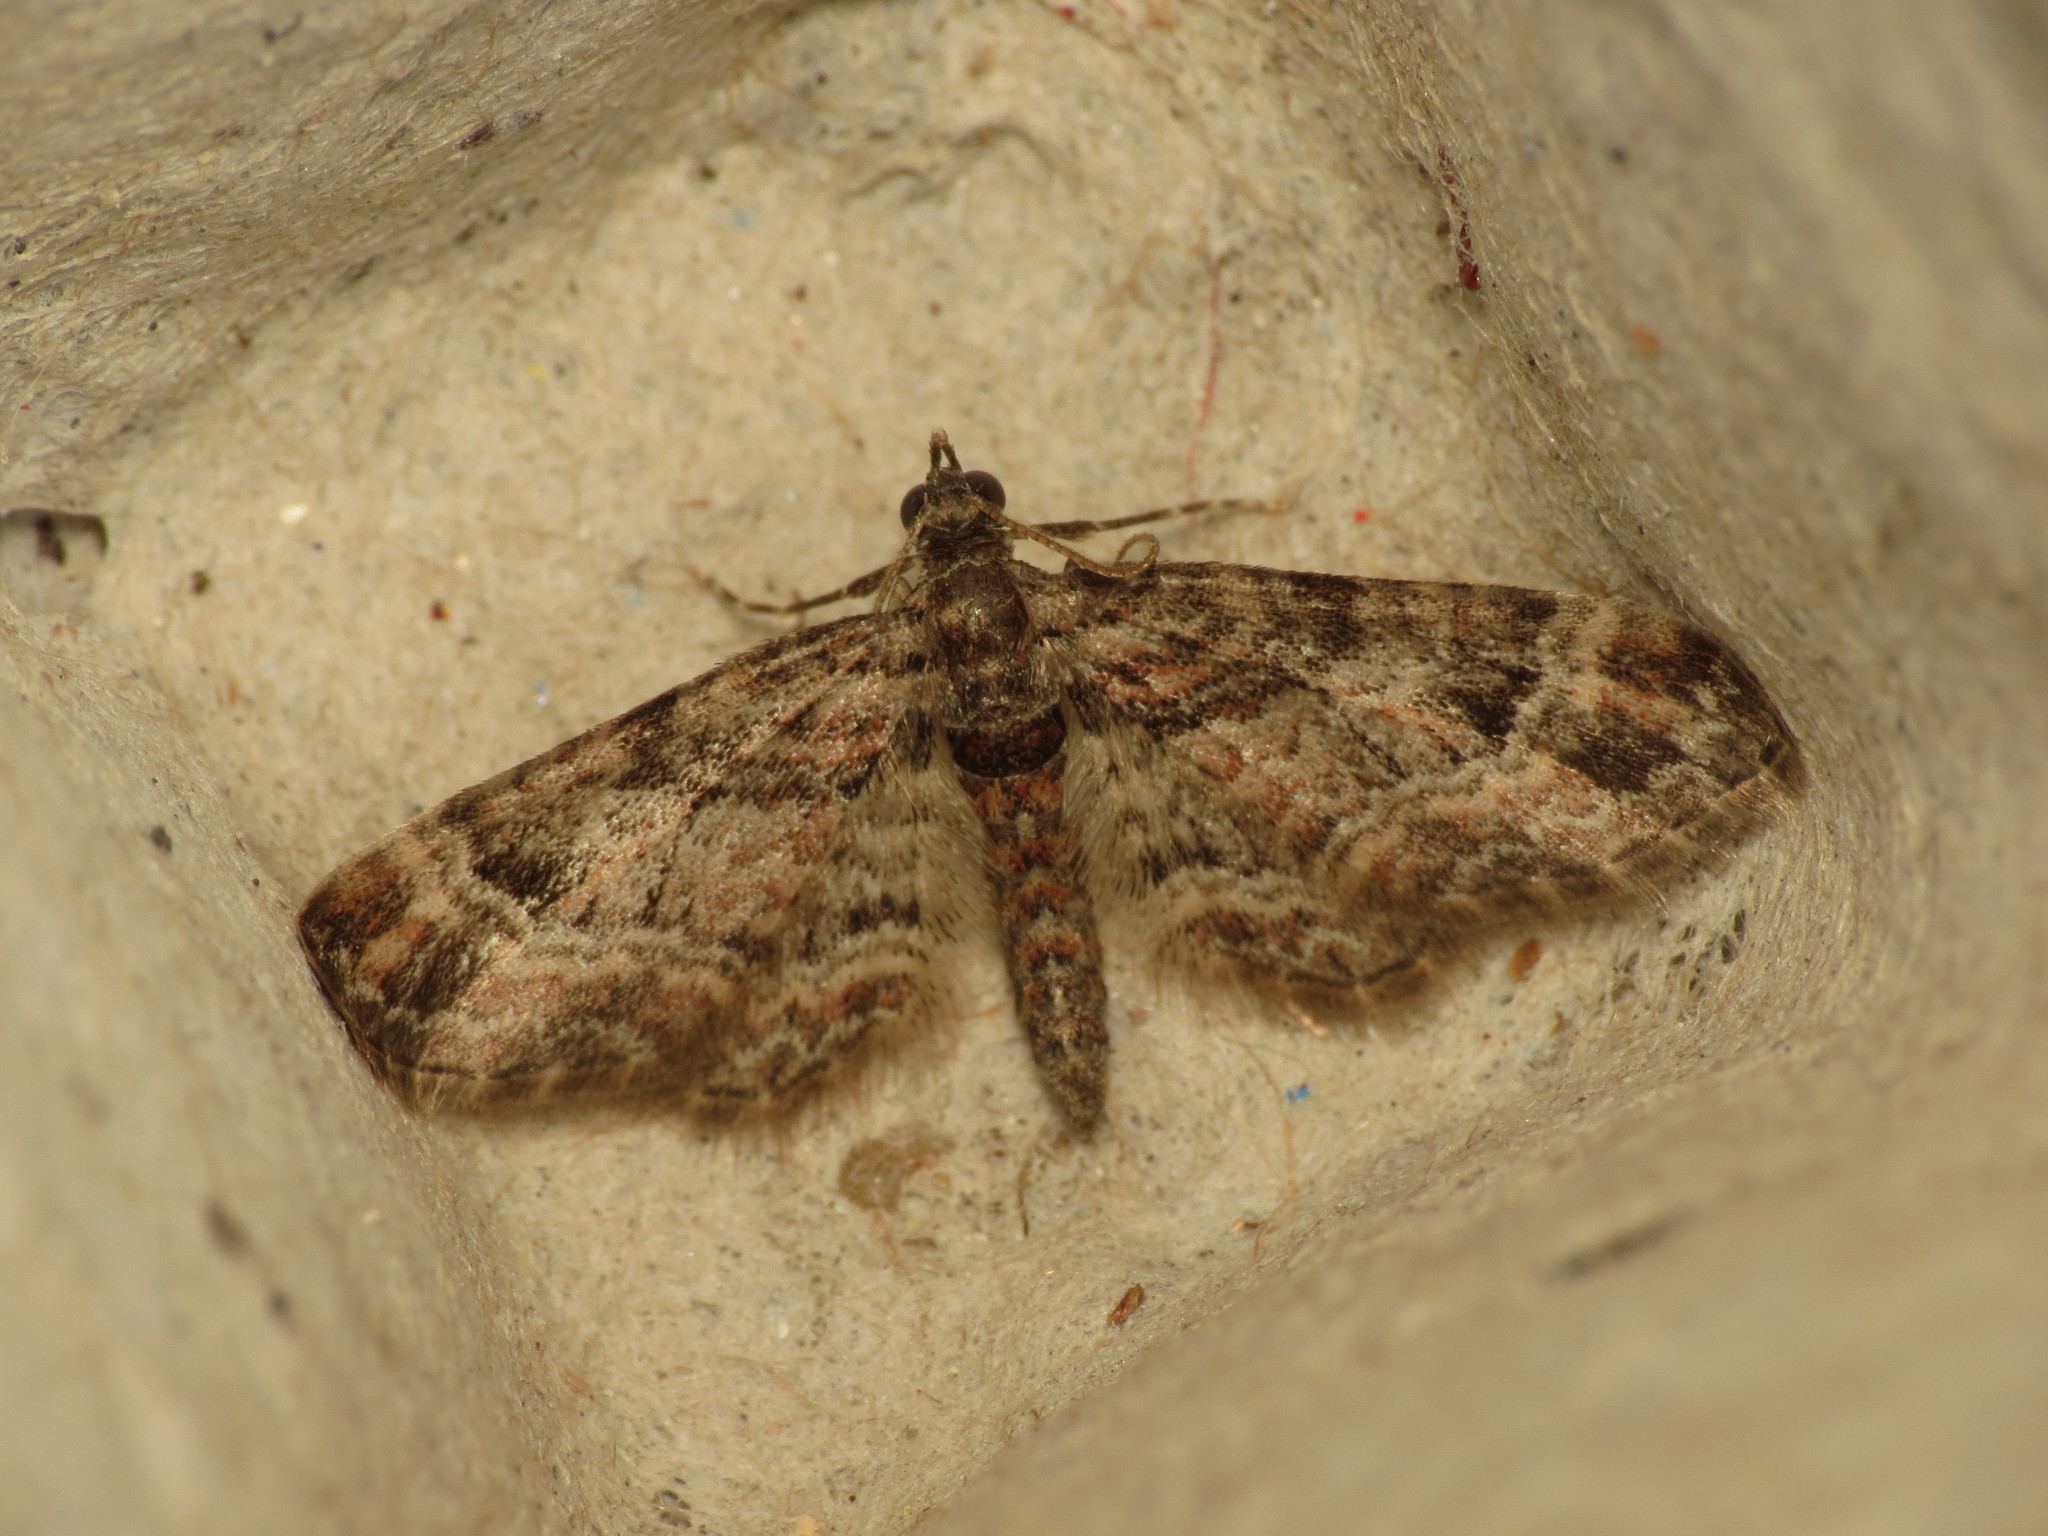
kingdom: Animalia
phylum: Arthropoda
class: Insecta
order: Lepidoptera
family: Geometridae
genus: Gymnoscelis
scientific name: Gymnoscelis rufifasciata
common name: Double-striped pug
